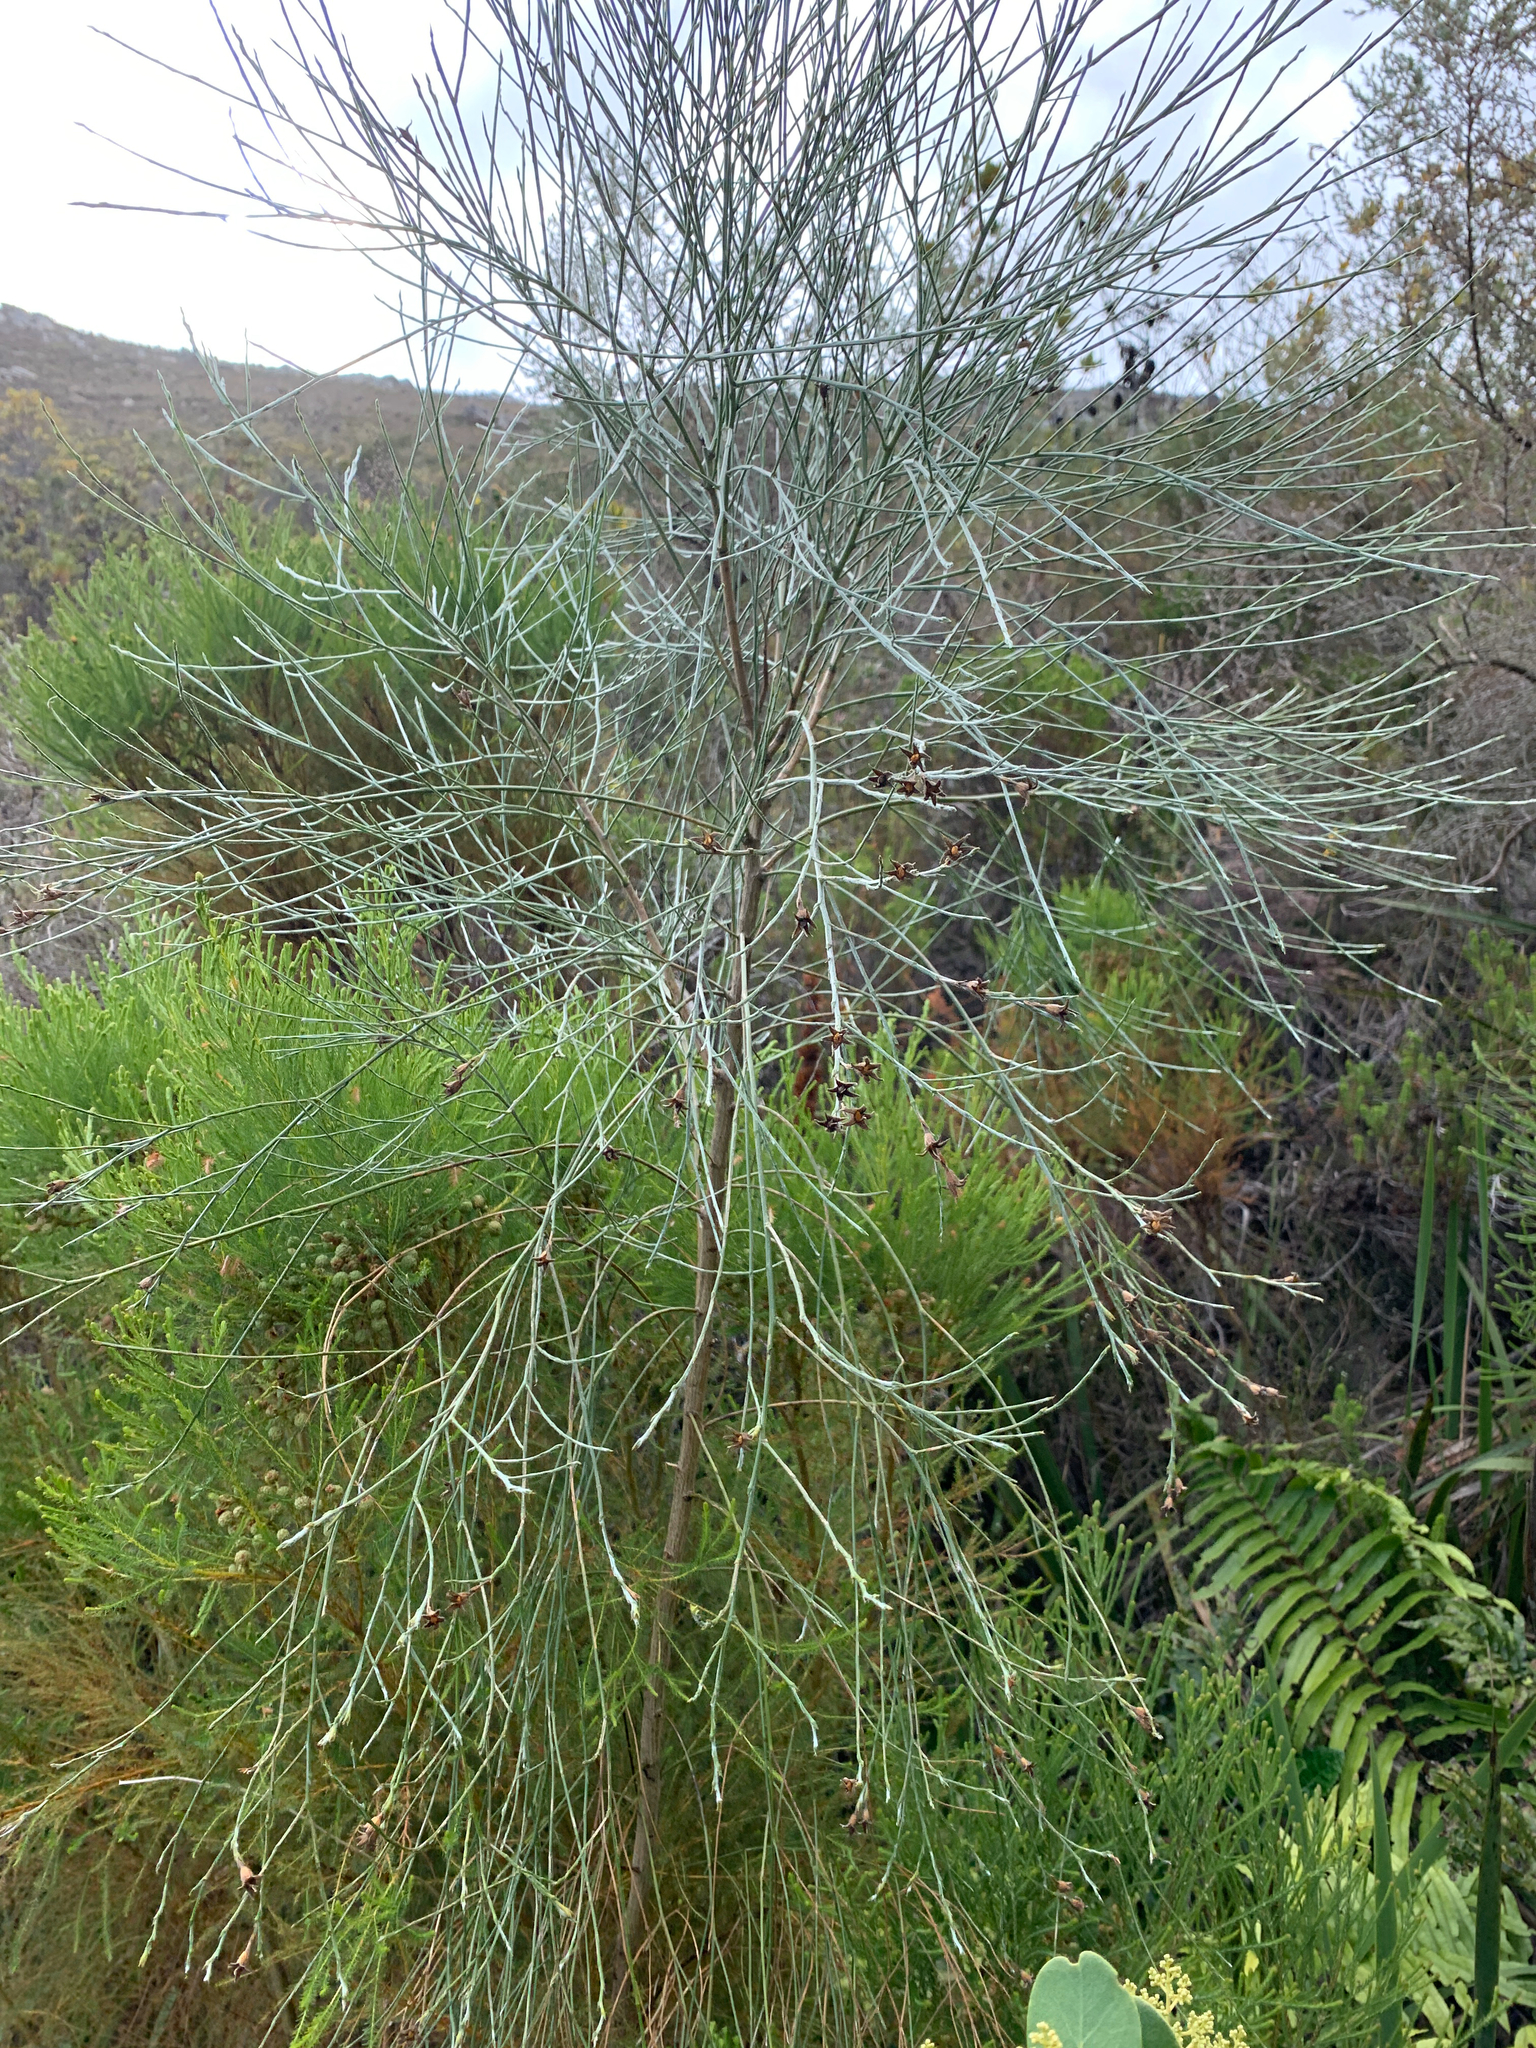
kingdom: Plantae
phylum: Tracheophyta
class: Magnoliopsida
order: Fabales
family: Fabaceae
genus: Psoralea
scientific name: Psoralea pullata
